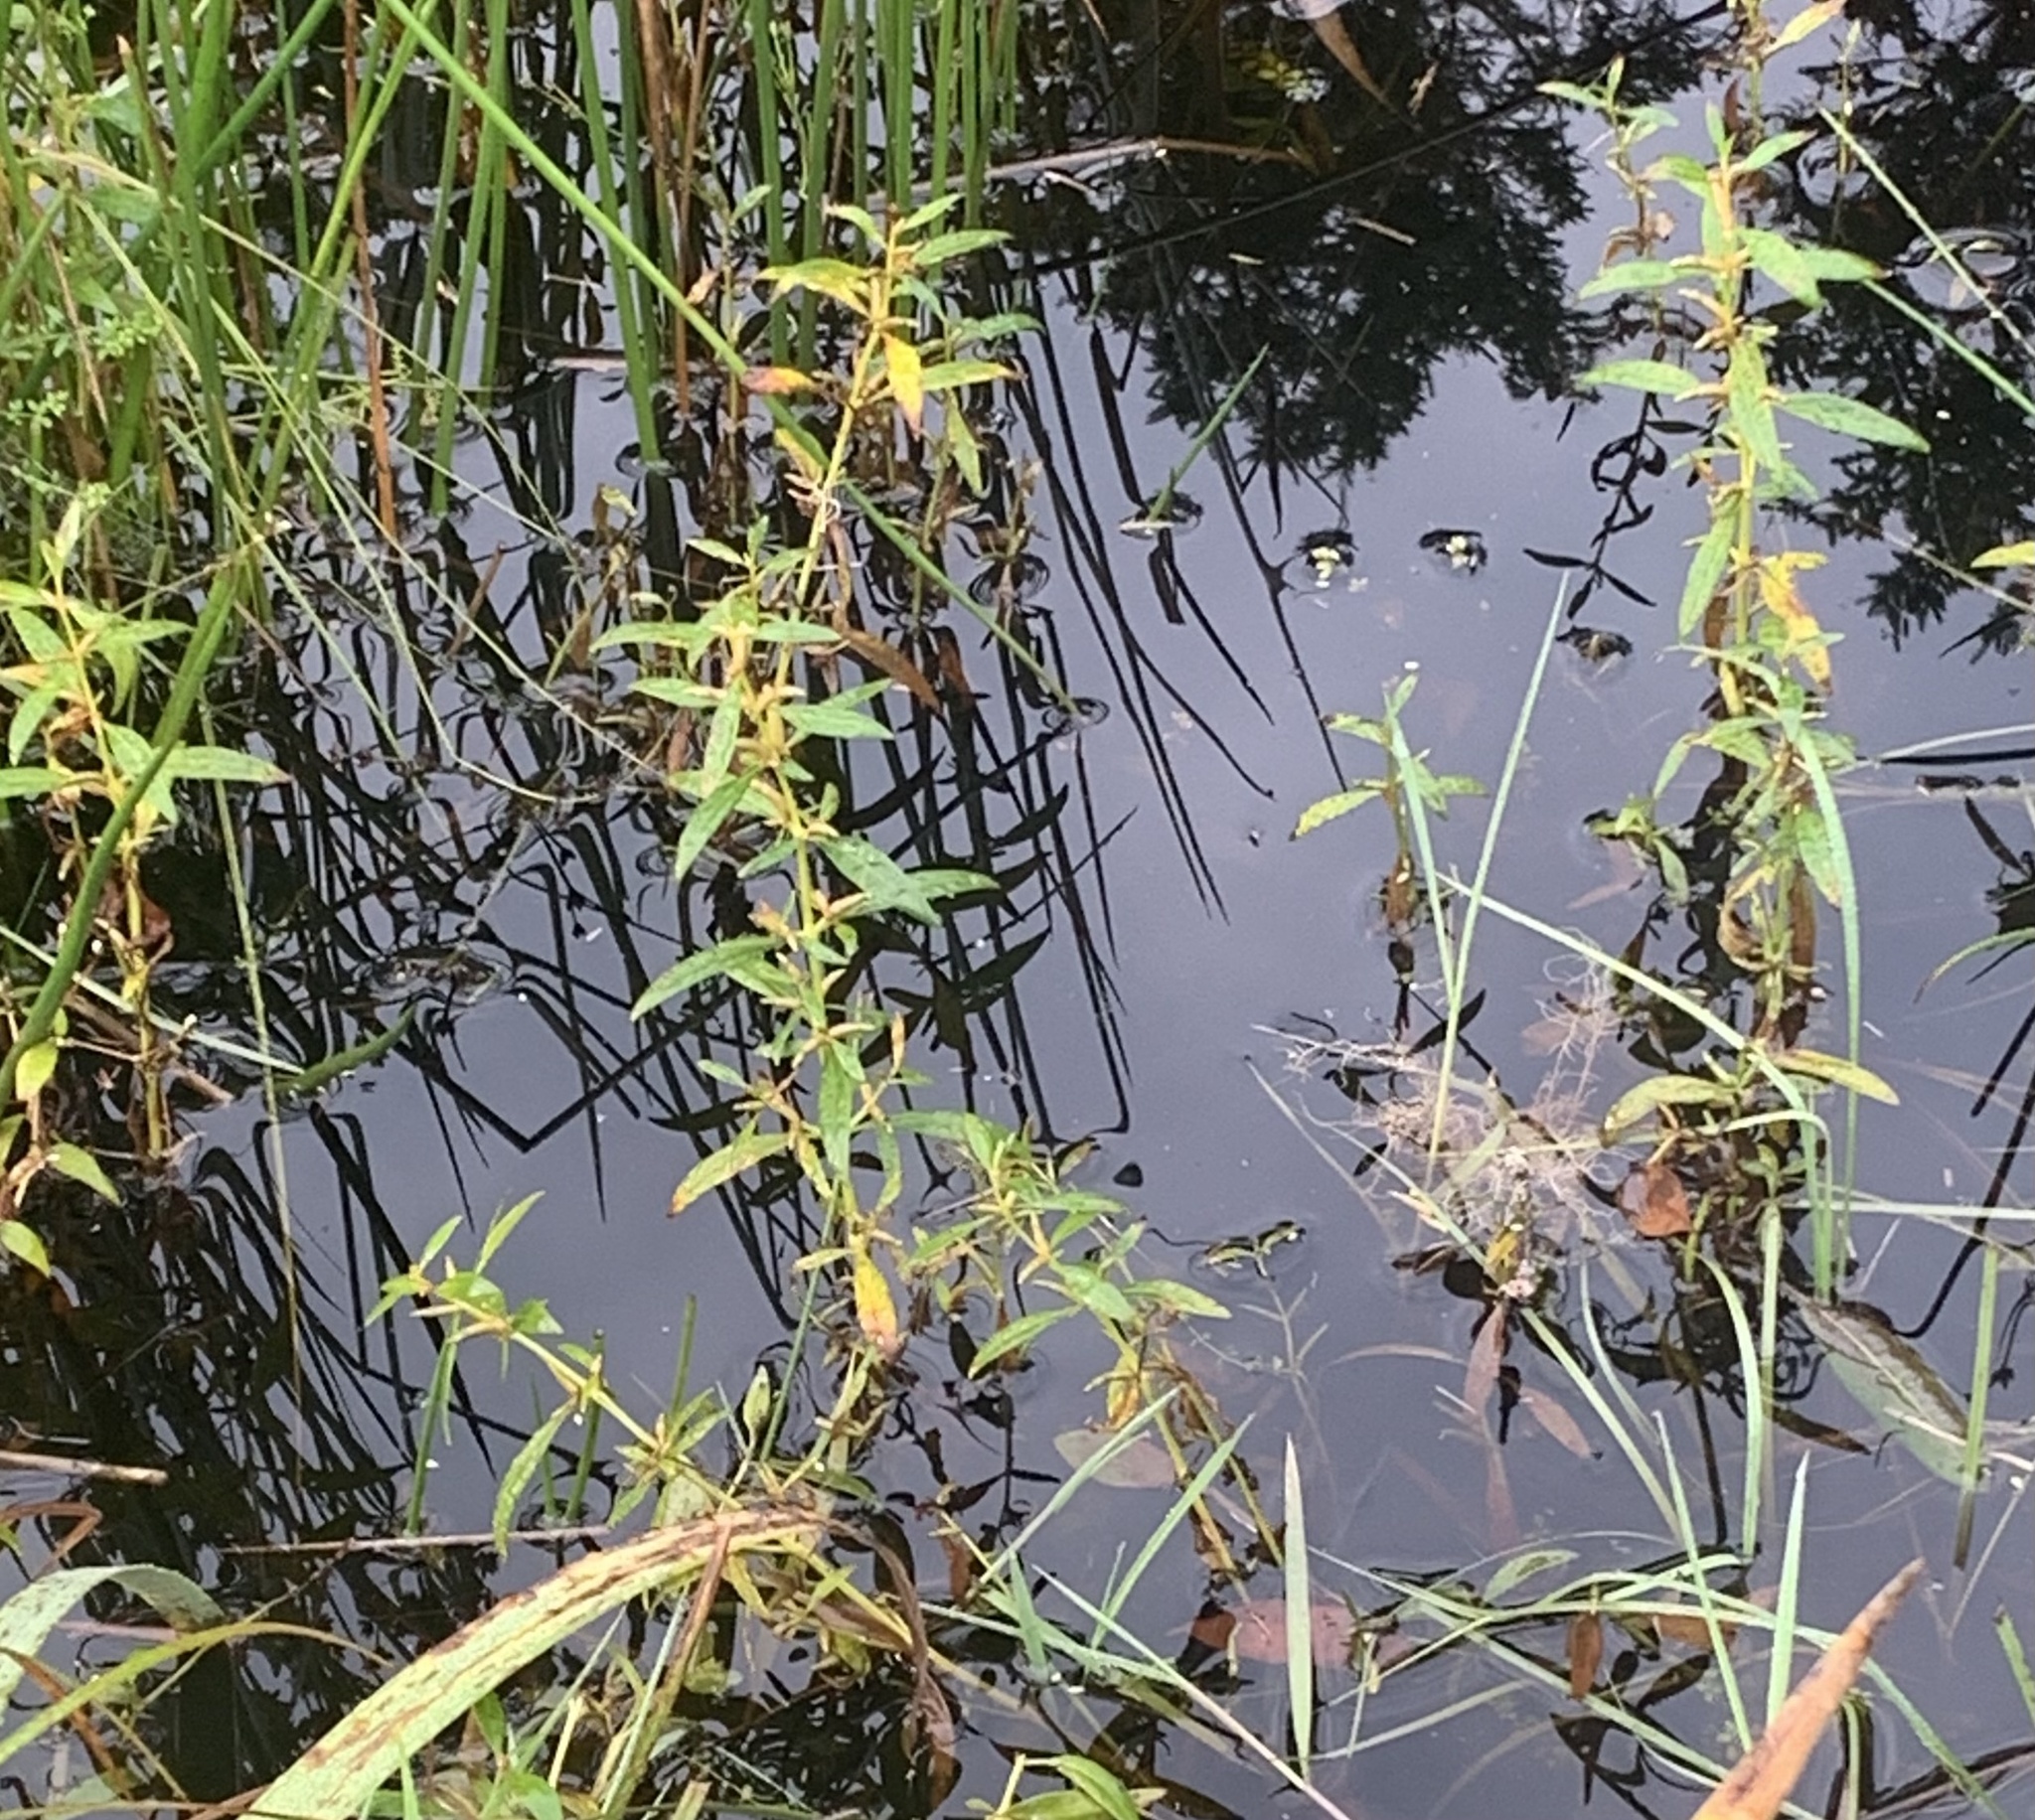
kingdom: Plantae
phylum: Tracheophyta
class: Magnoliopsida
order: Ericales
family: Primulaceae
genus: Lysimachia
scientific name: Lysimachia terrestris
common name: Lake loosestrife
